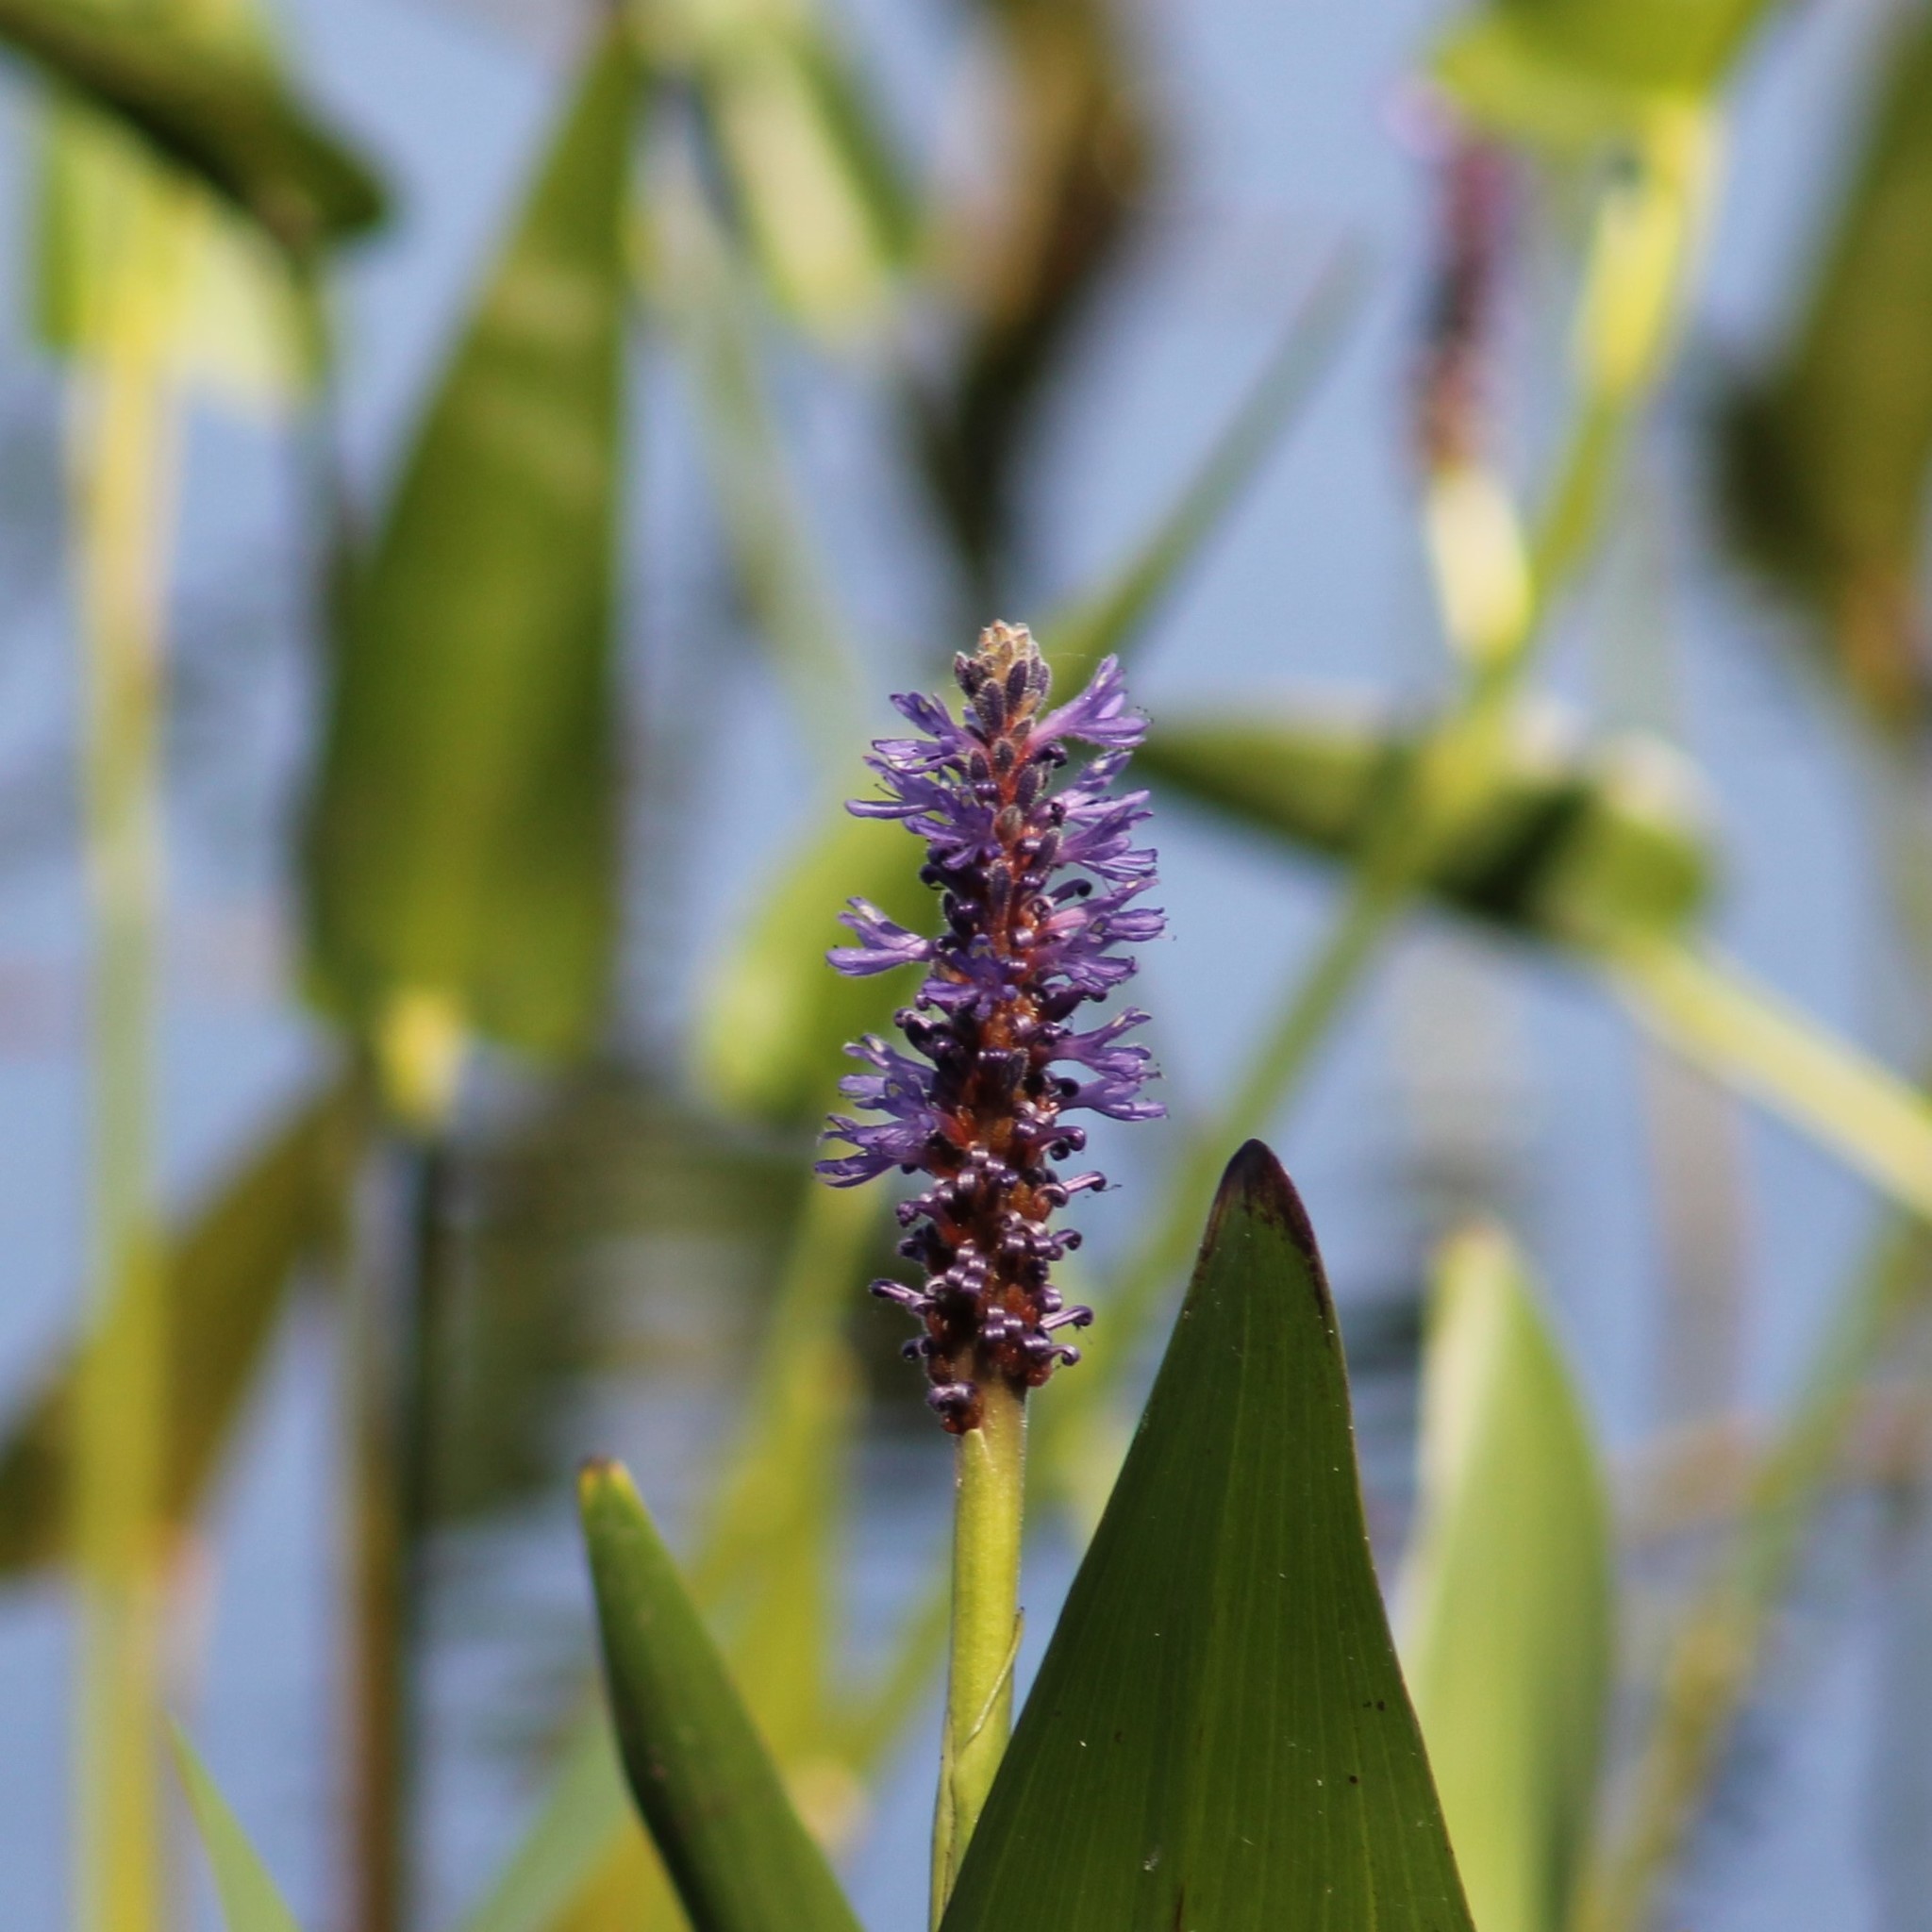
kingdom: Plantae
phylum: Tracheophyta
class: Liliopsida
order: Commelinales
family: Pontederiaceae
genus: Pontederia
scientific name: Pontederia cordata
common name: Pickerelweed
